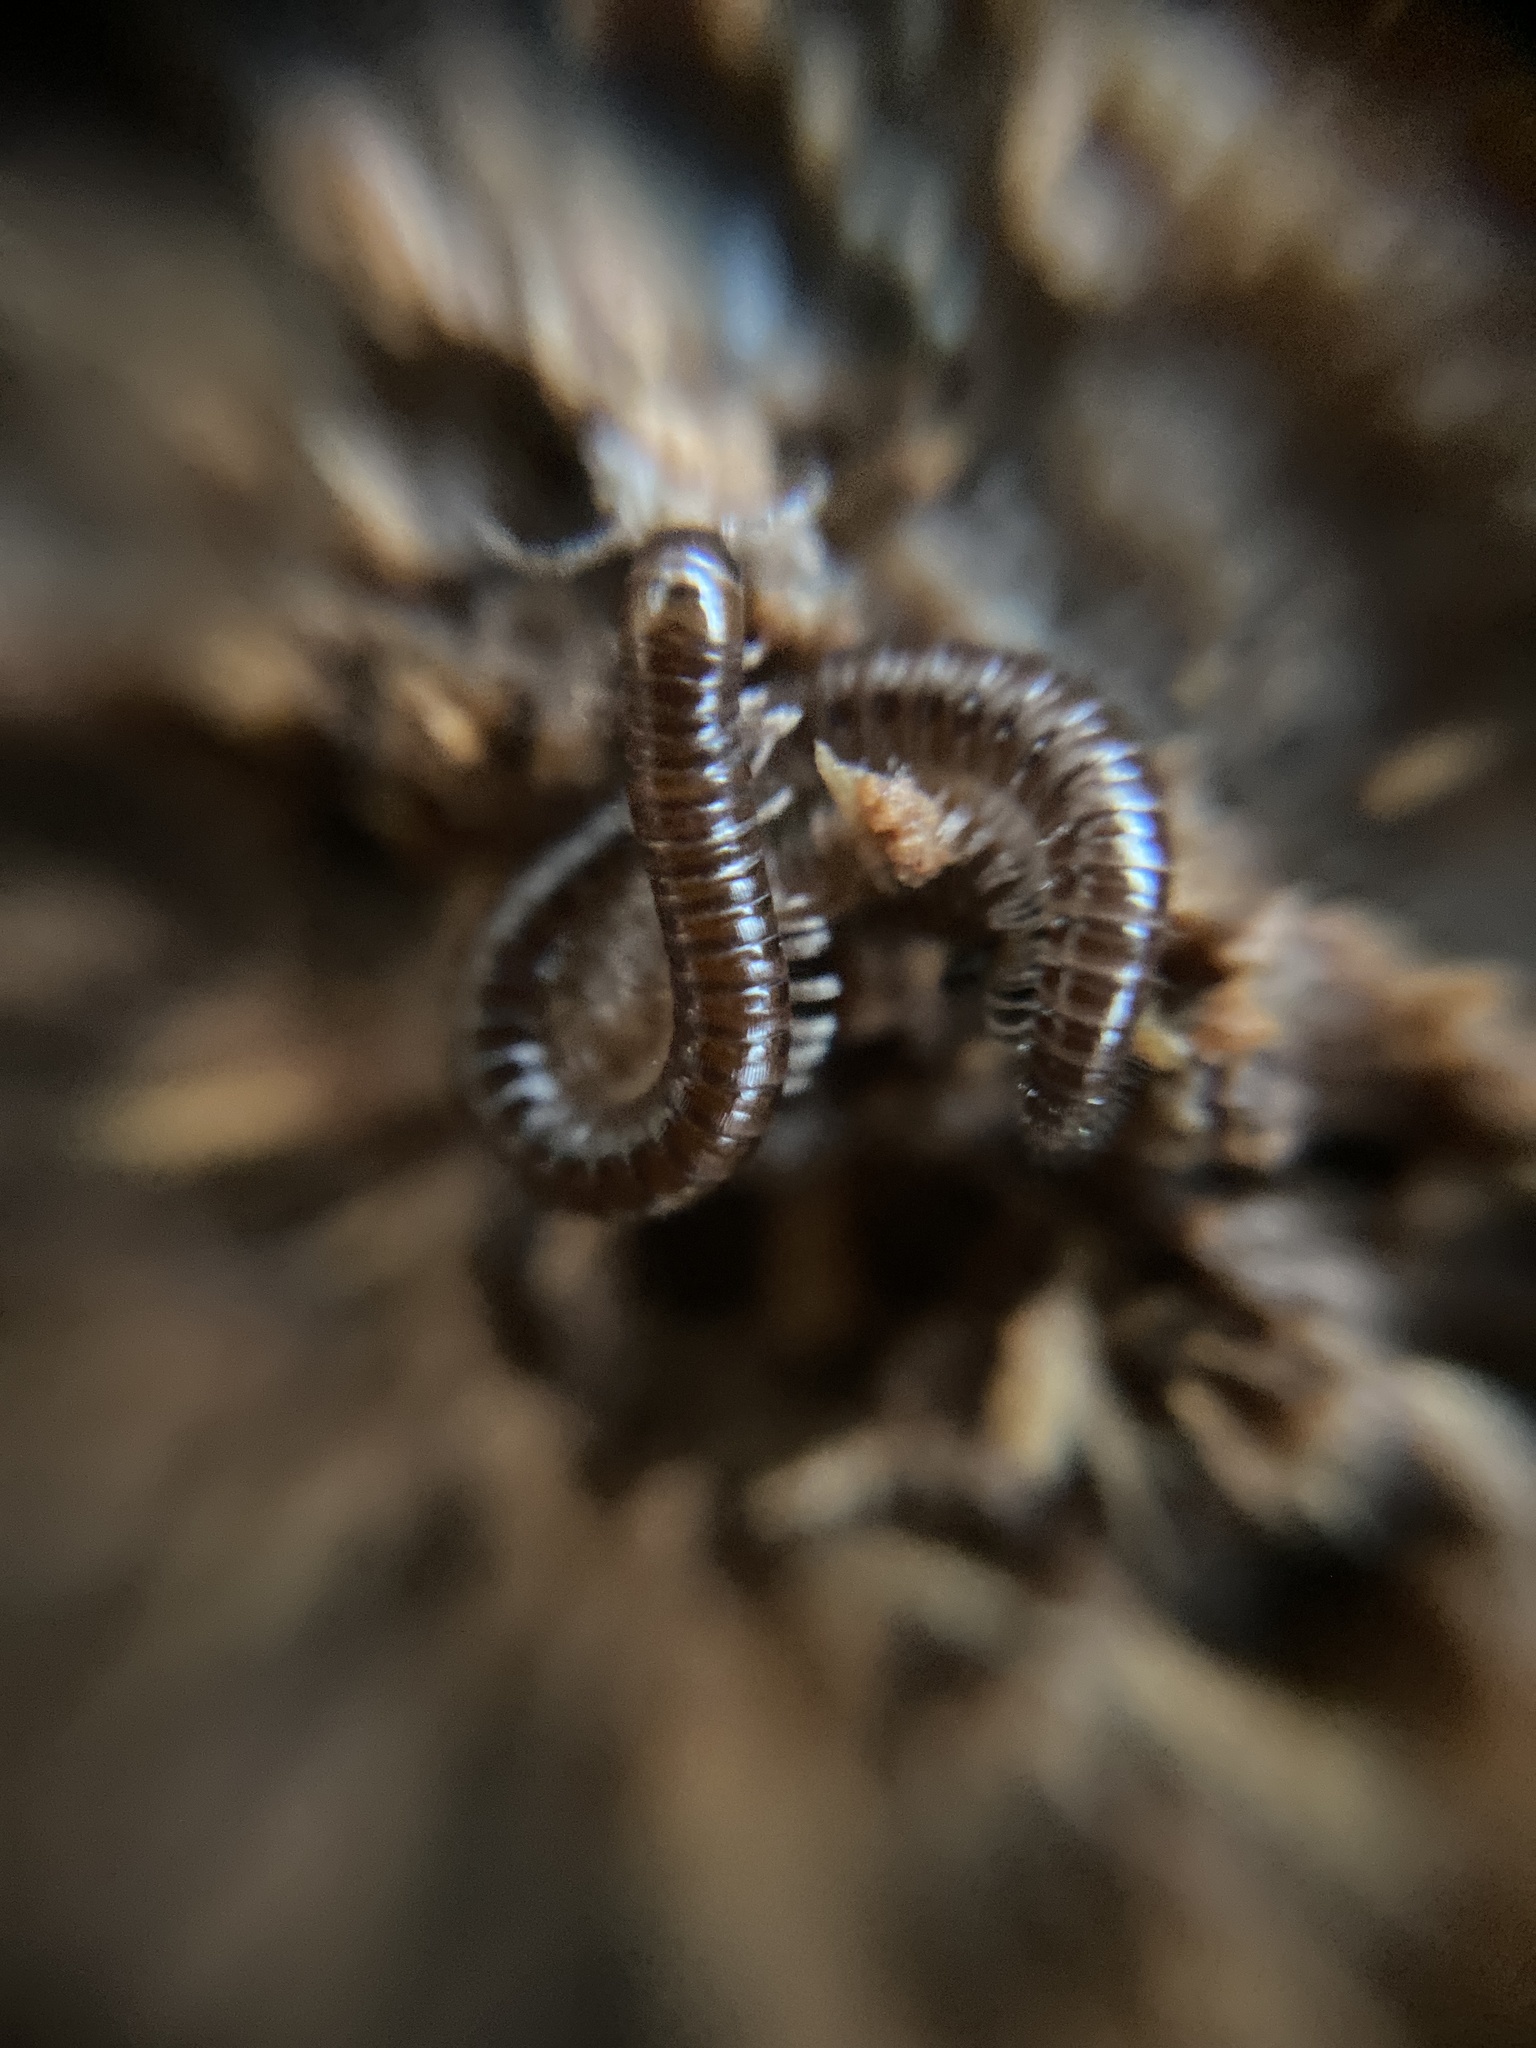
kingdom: Animalia
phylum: Arthropoda
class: Diplopoda
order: Julida
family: Julidae
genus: Ophyiulus
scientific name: Ophyiulus pilosus
